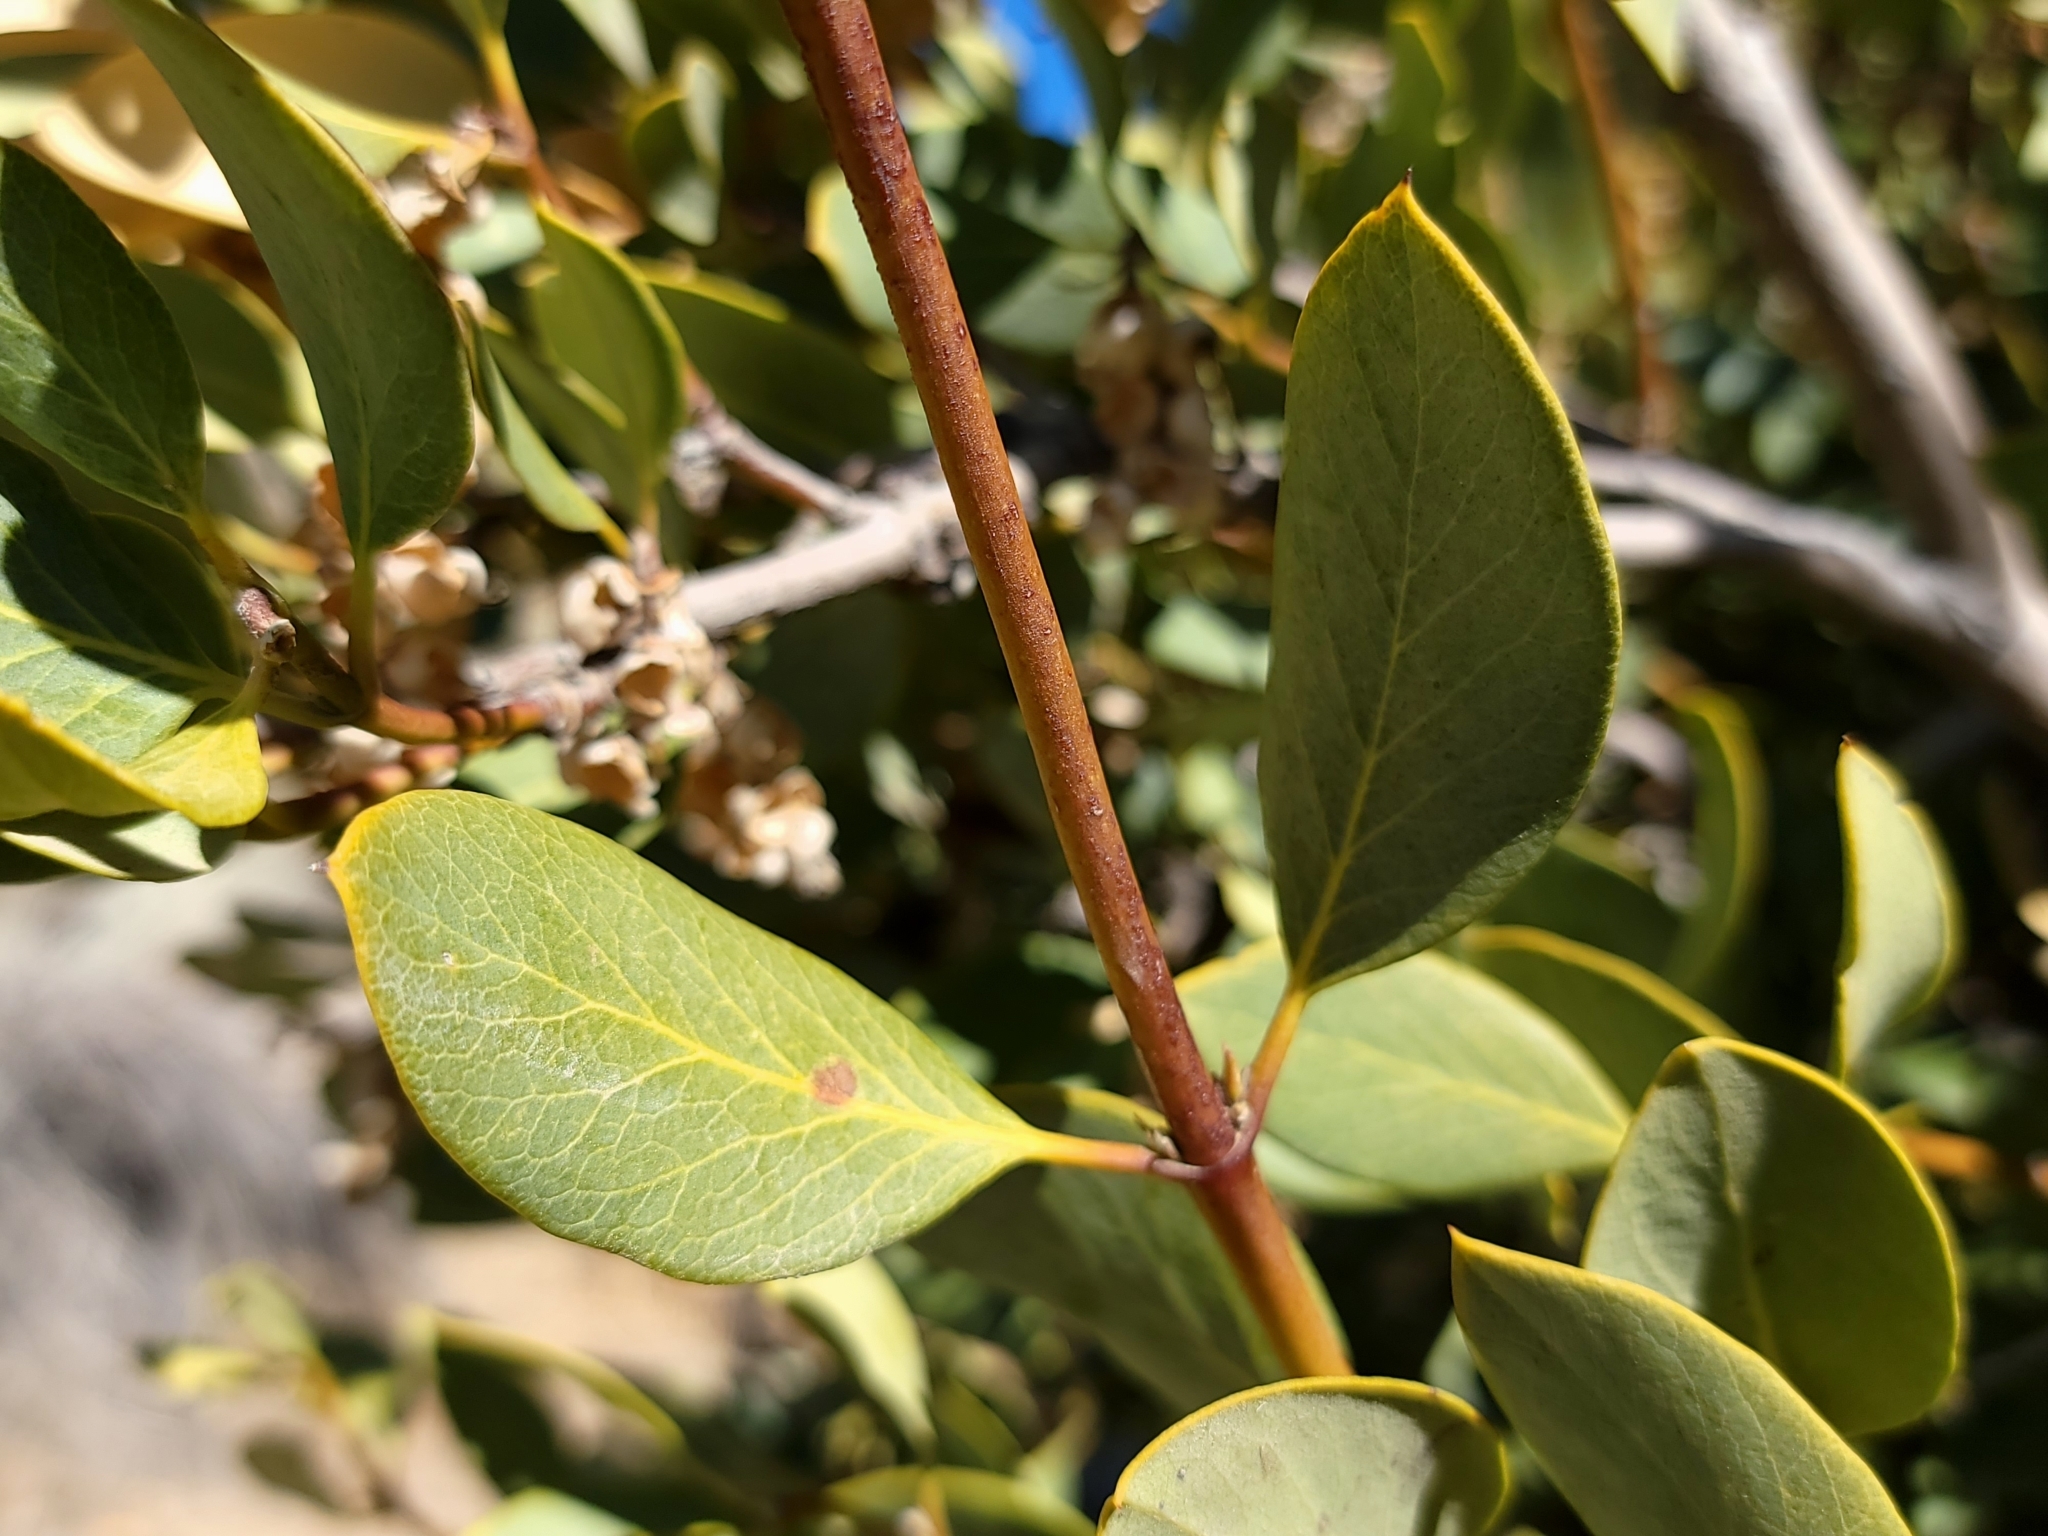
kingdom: Plantae
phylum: Tracheophyta
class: Magnoliopsida
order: Garryales
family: Garryaceae
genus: Garrya
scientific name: Garrya flavescens
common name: Ashy silk-tassel
